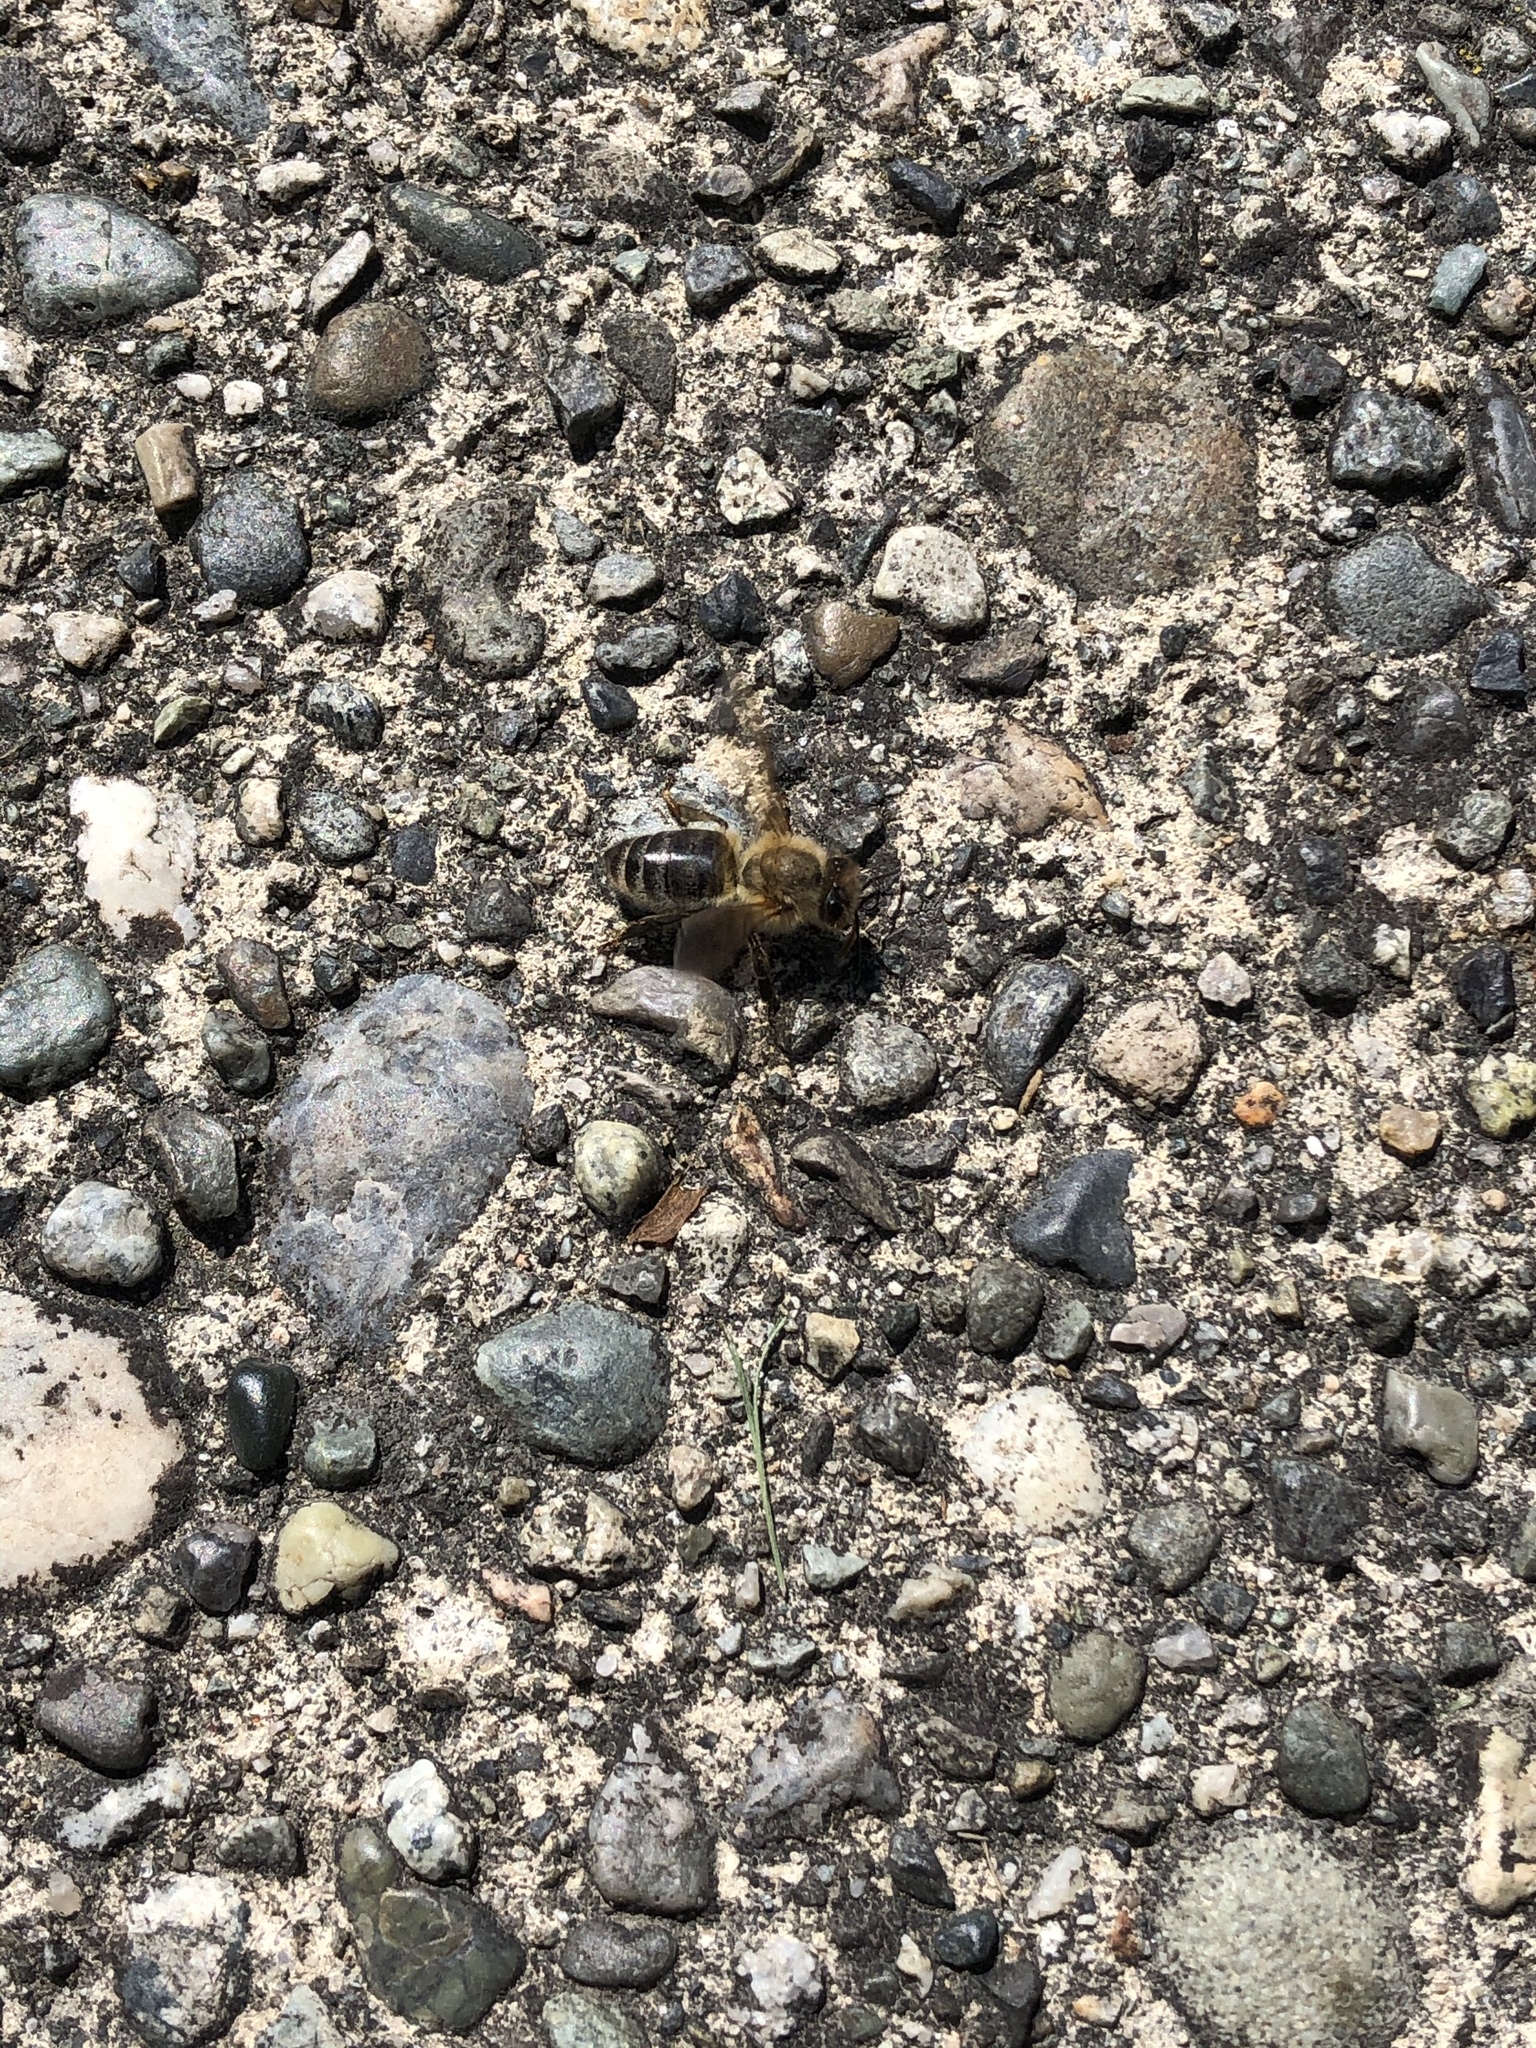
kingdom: Animalia
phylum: Arthropoda
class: Insecta
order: Hymenoptera
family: Apidae
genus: Apis
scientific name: Apis mellifera
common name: Honey bee
